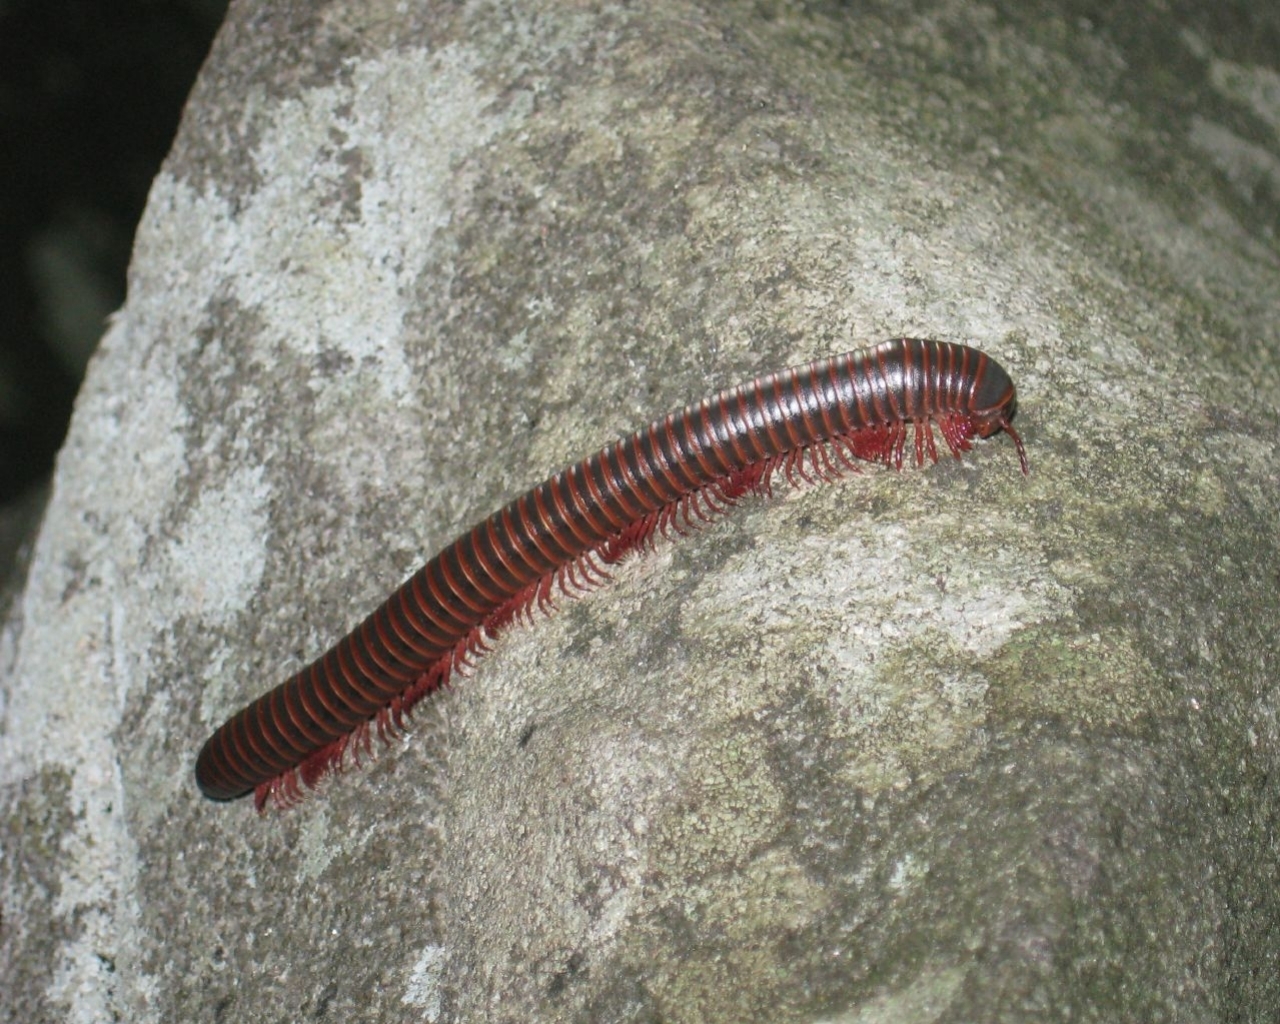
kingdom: Animalia
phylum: Arthropoda
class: Diplopoda
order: Spirobolida
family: Spirobolidae
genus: Narceus
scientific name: Narceus annularis
